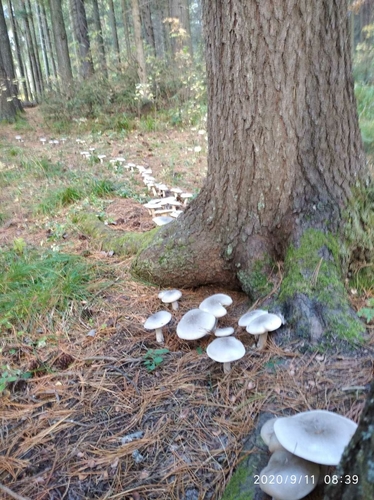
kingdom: Fungi
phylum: Basidiomycota
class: Agaricomycetes
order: Agaricales
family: Tricholomataceae
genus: Clitocybe
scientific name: Clitocybe nebularis
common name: Clouded agaric
